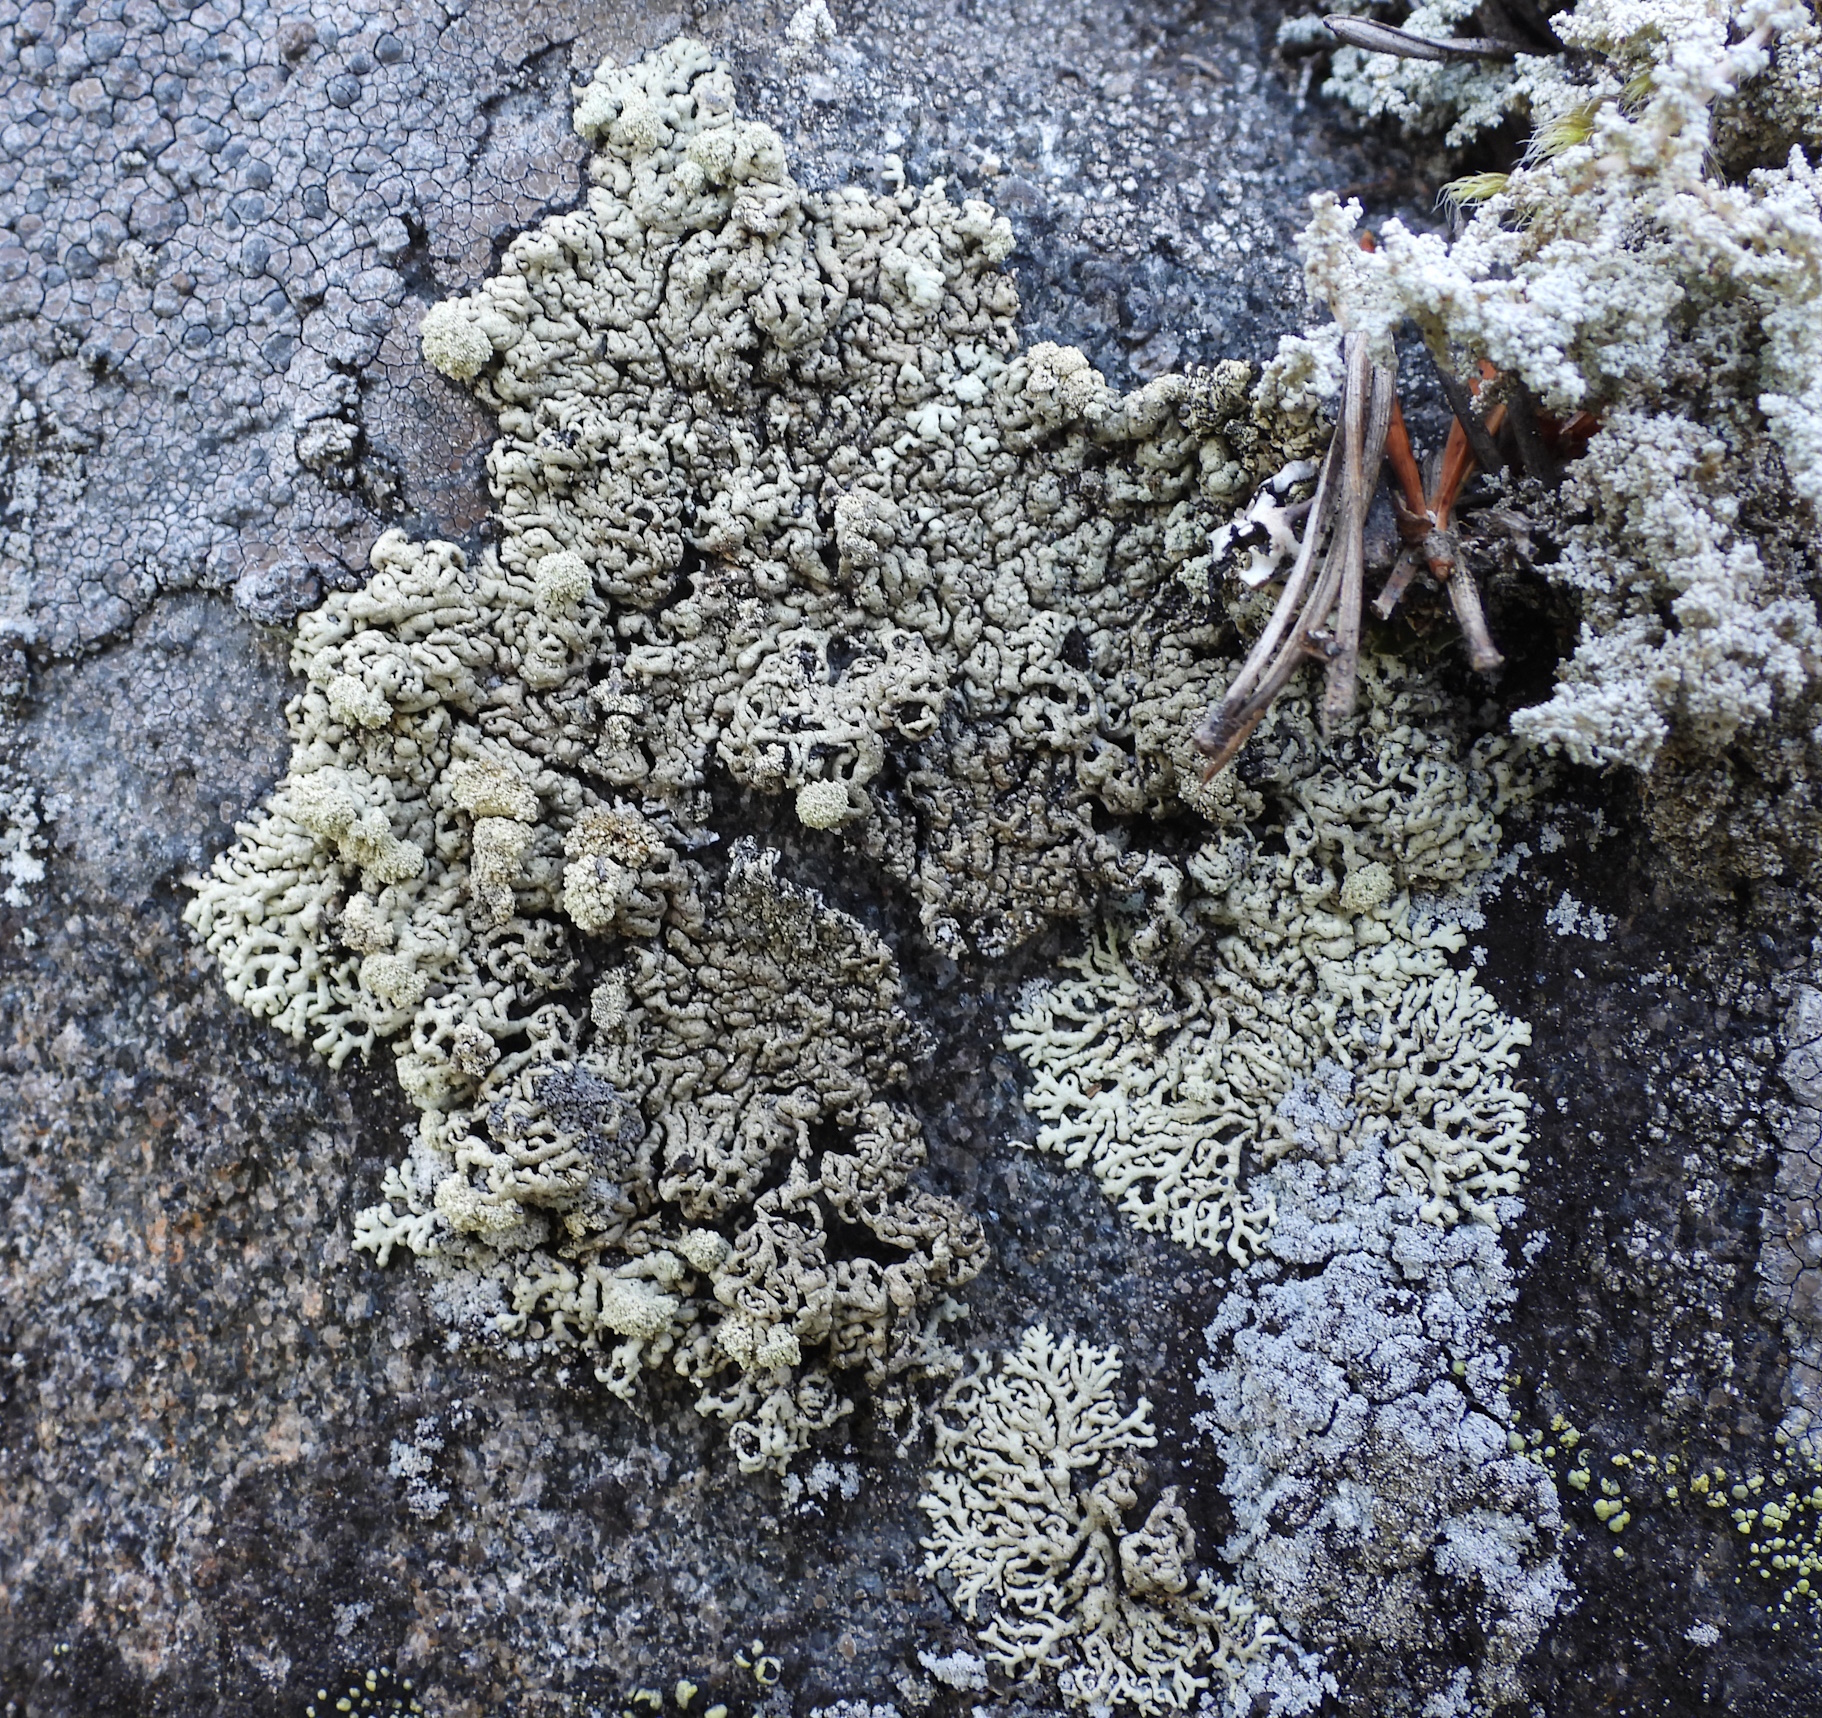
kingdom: Fungi
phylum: Ascomycota
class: Lecanoromycetes
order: Lecanorales
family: Parmeliaceae
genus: Arctoparmelia
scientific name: Arctoparmelia incurva
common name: Bent ring lichen
